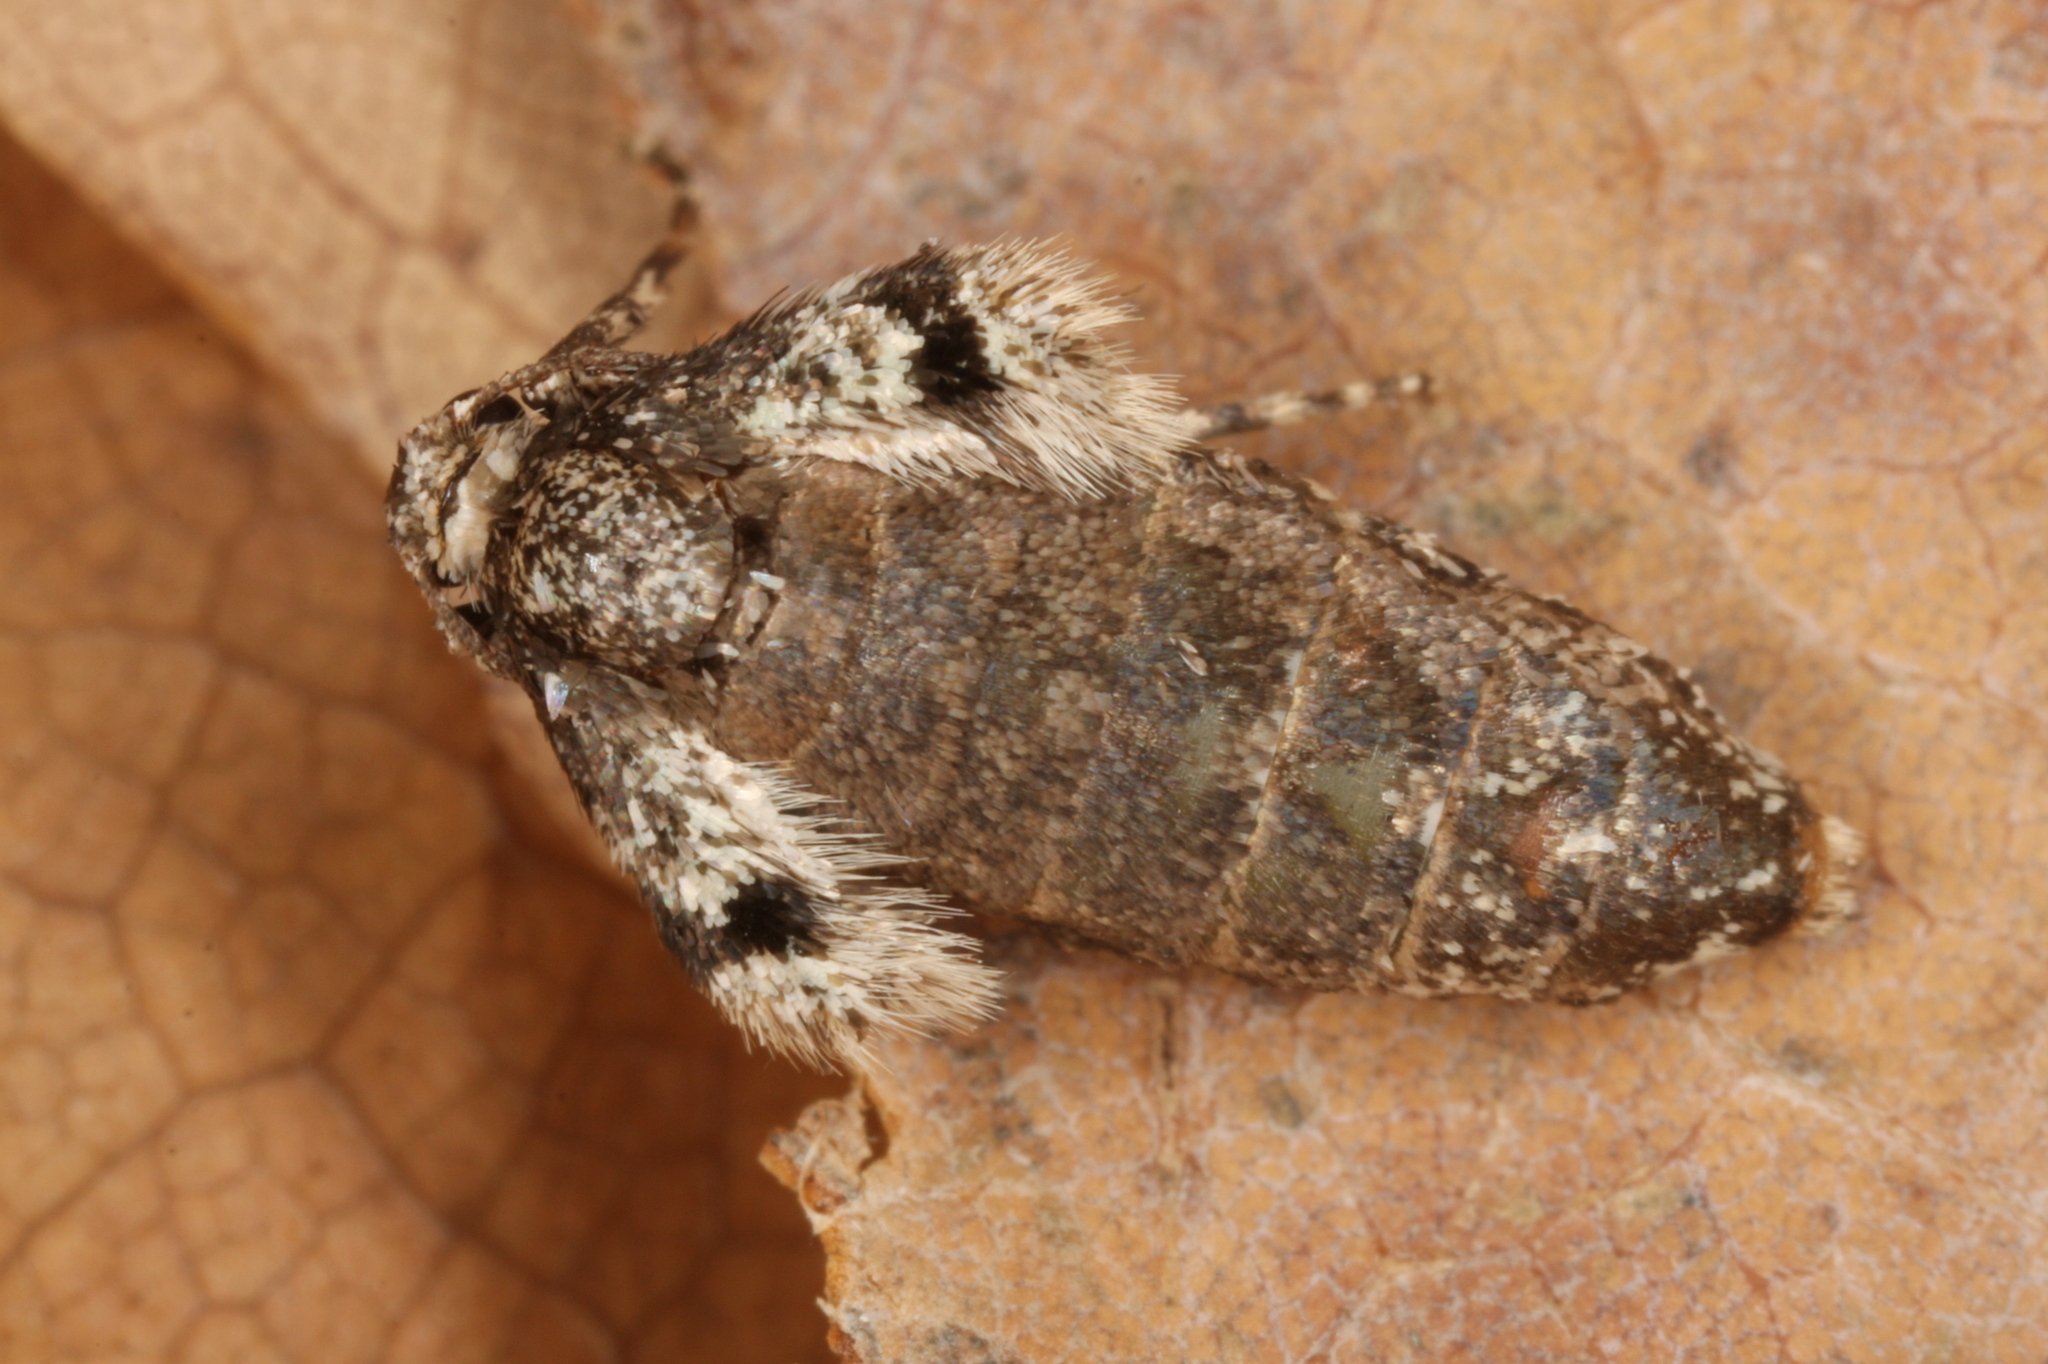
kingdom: Animalia
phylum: Arthropoda
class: Insecta
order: Lepidoptera
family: Geometridae
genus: Operophtera
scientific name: Operophtera brumata
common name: Winter moth
